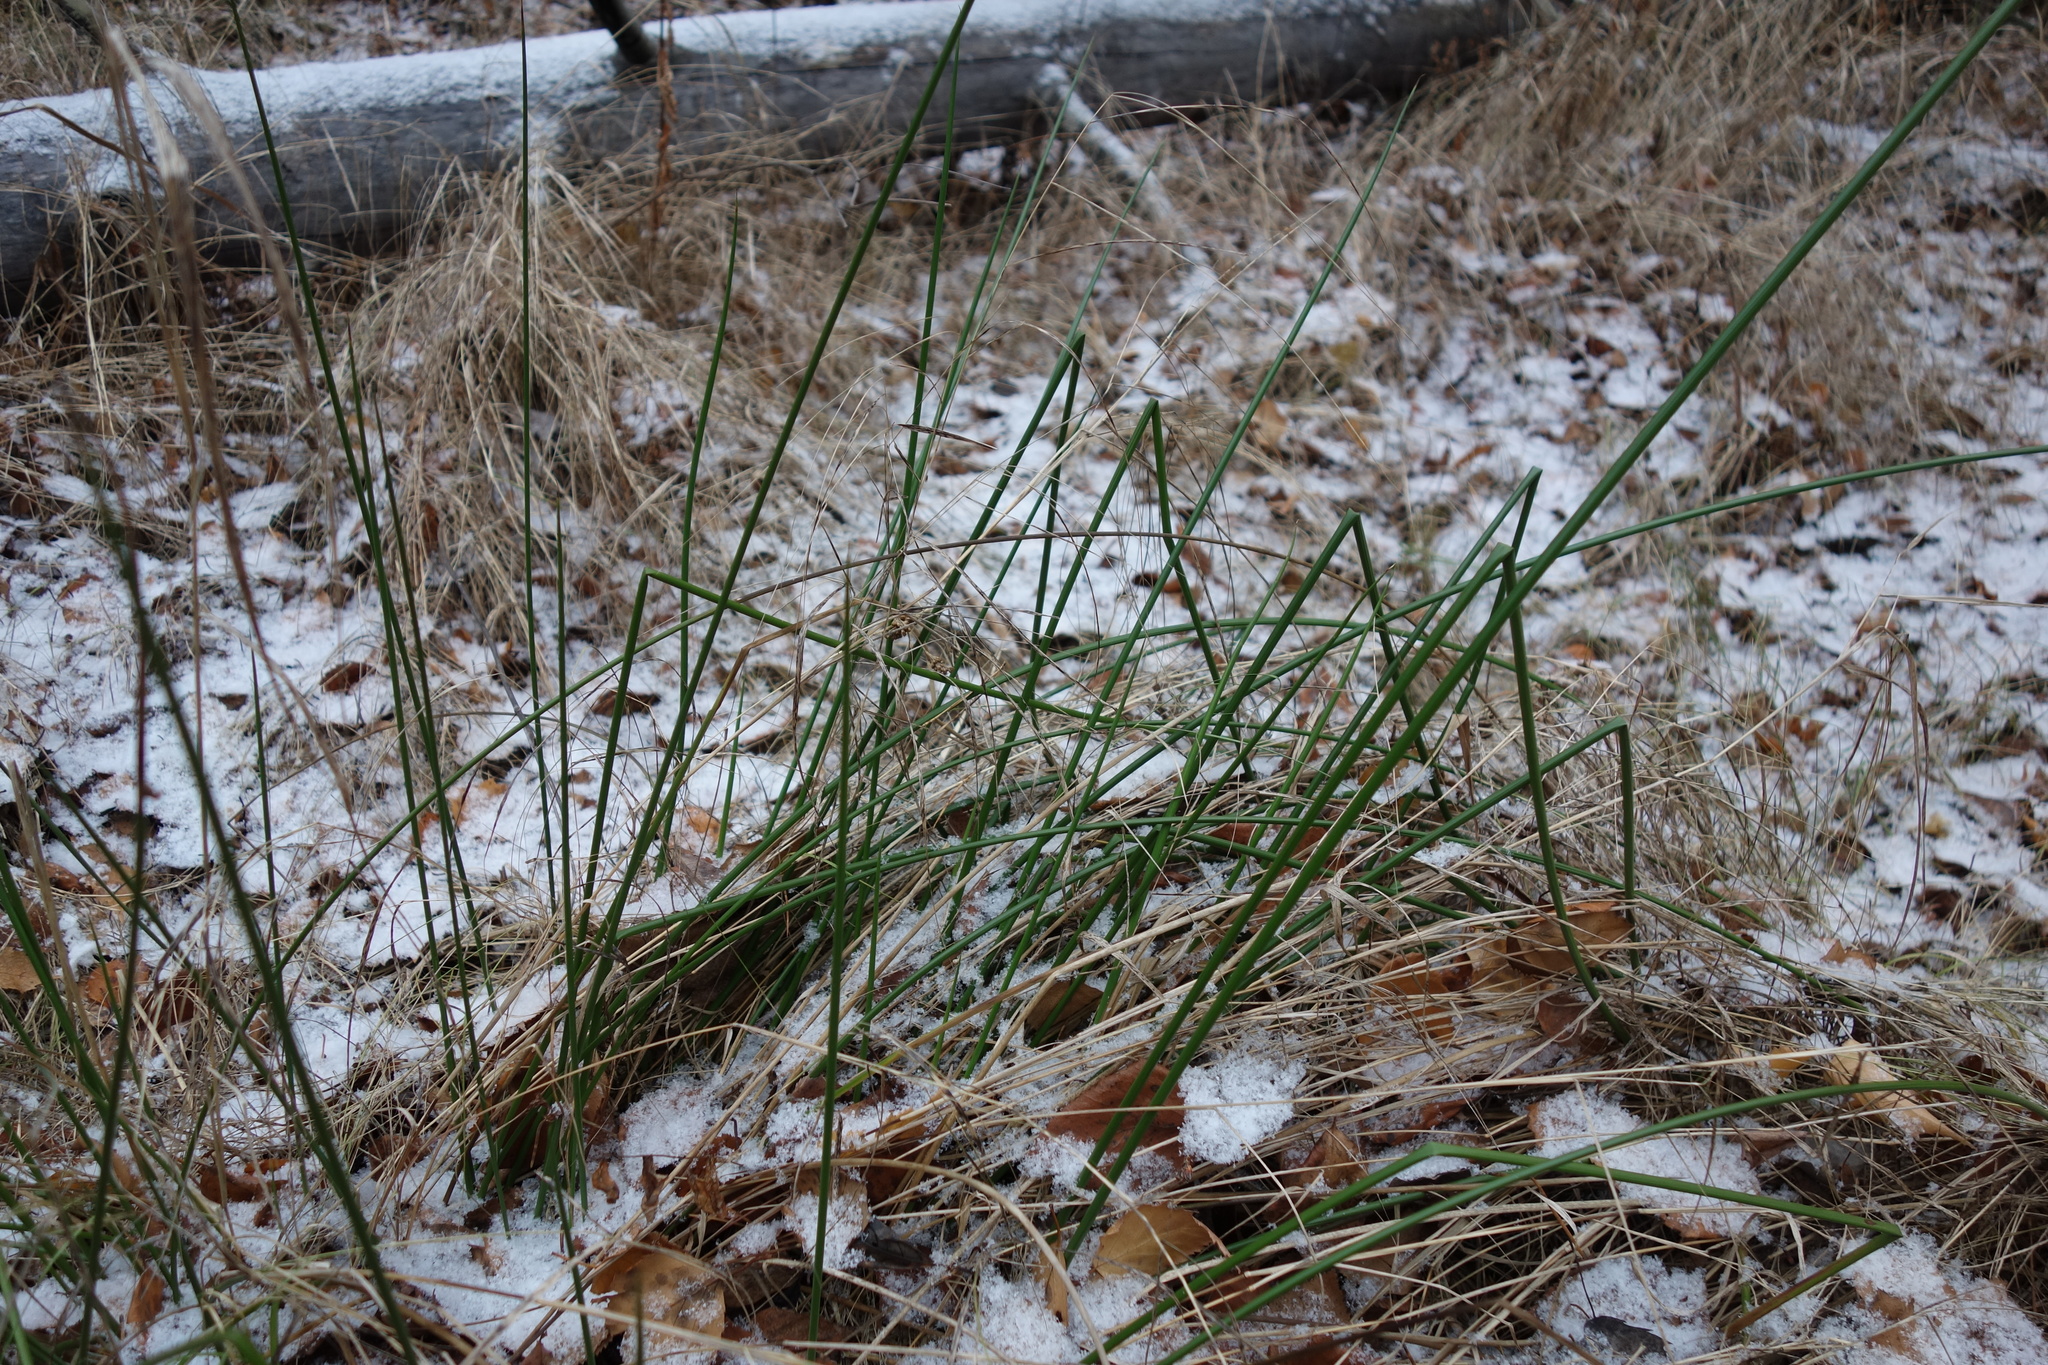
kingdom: Plantae
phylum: Tracheophyta
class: Liliopsida
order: Poales
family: Juncaceae
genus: Juncus
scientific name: Juncus effusus
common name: Soft rush
